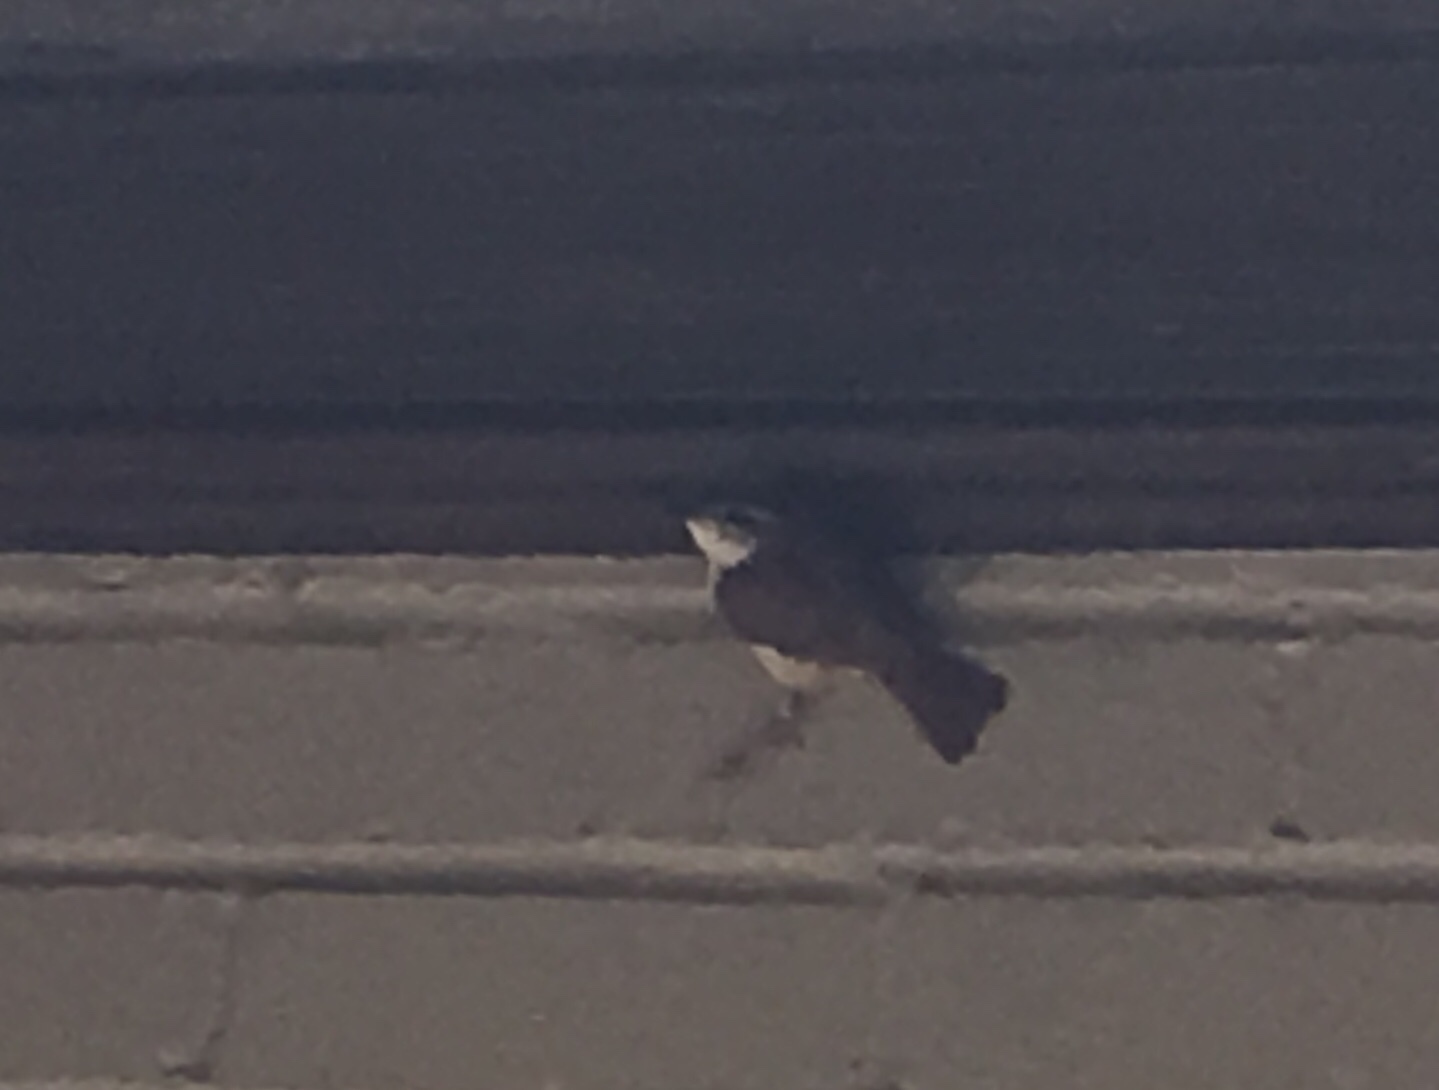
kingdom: Animalia
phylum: Chordata
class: Aves
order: Passeriformes
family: Troglodytidae
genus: Thryothorus
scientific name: Thryothorus ludovicianus
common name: Carolina wren
